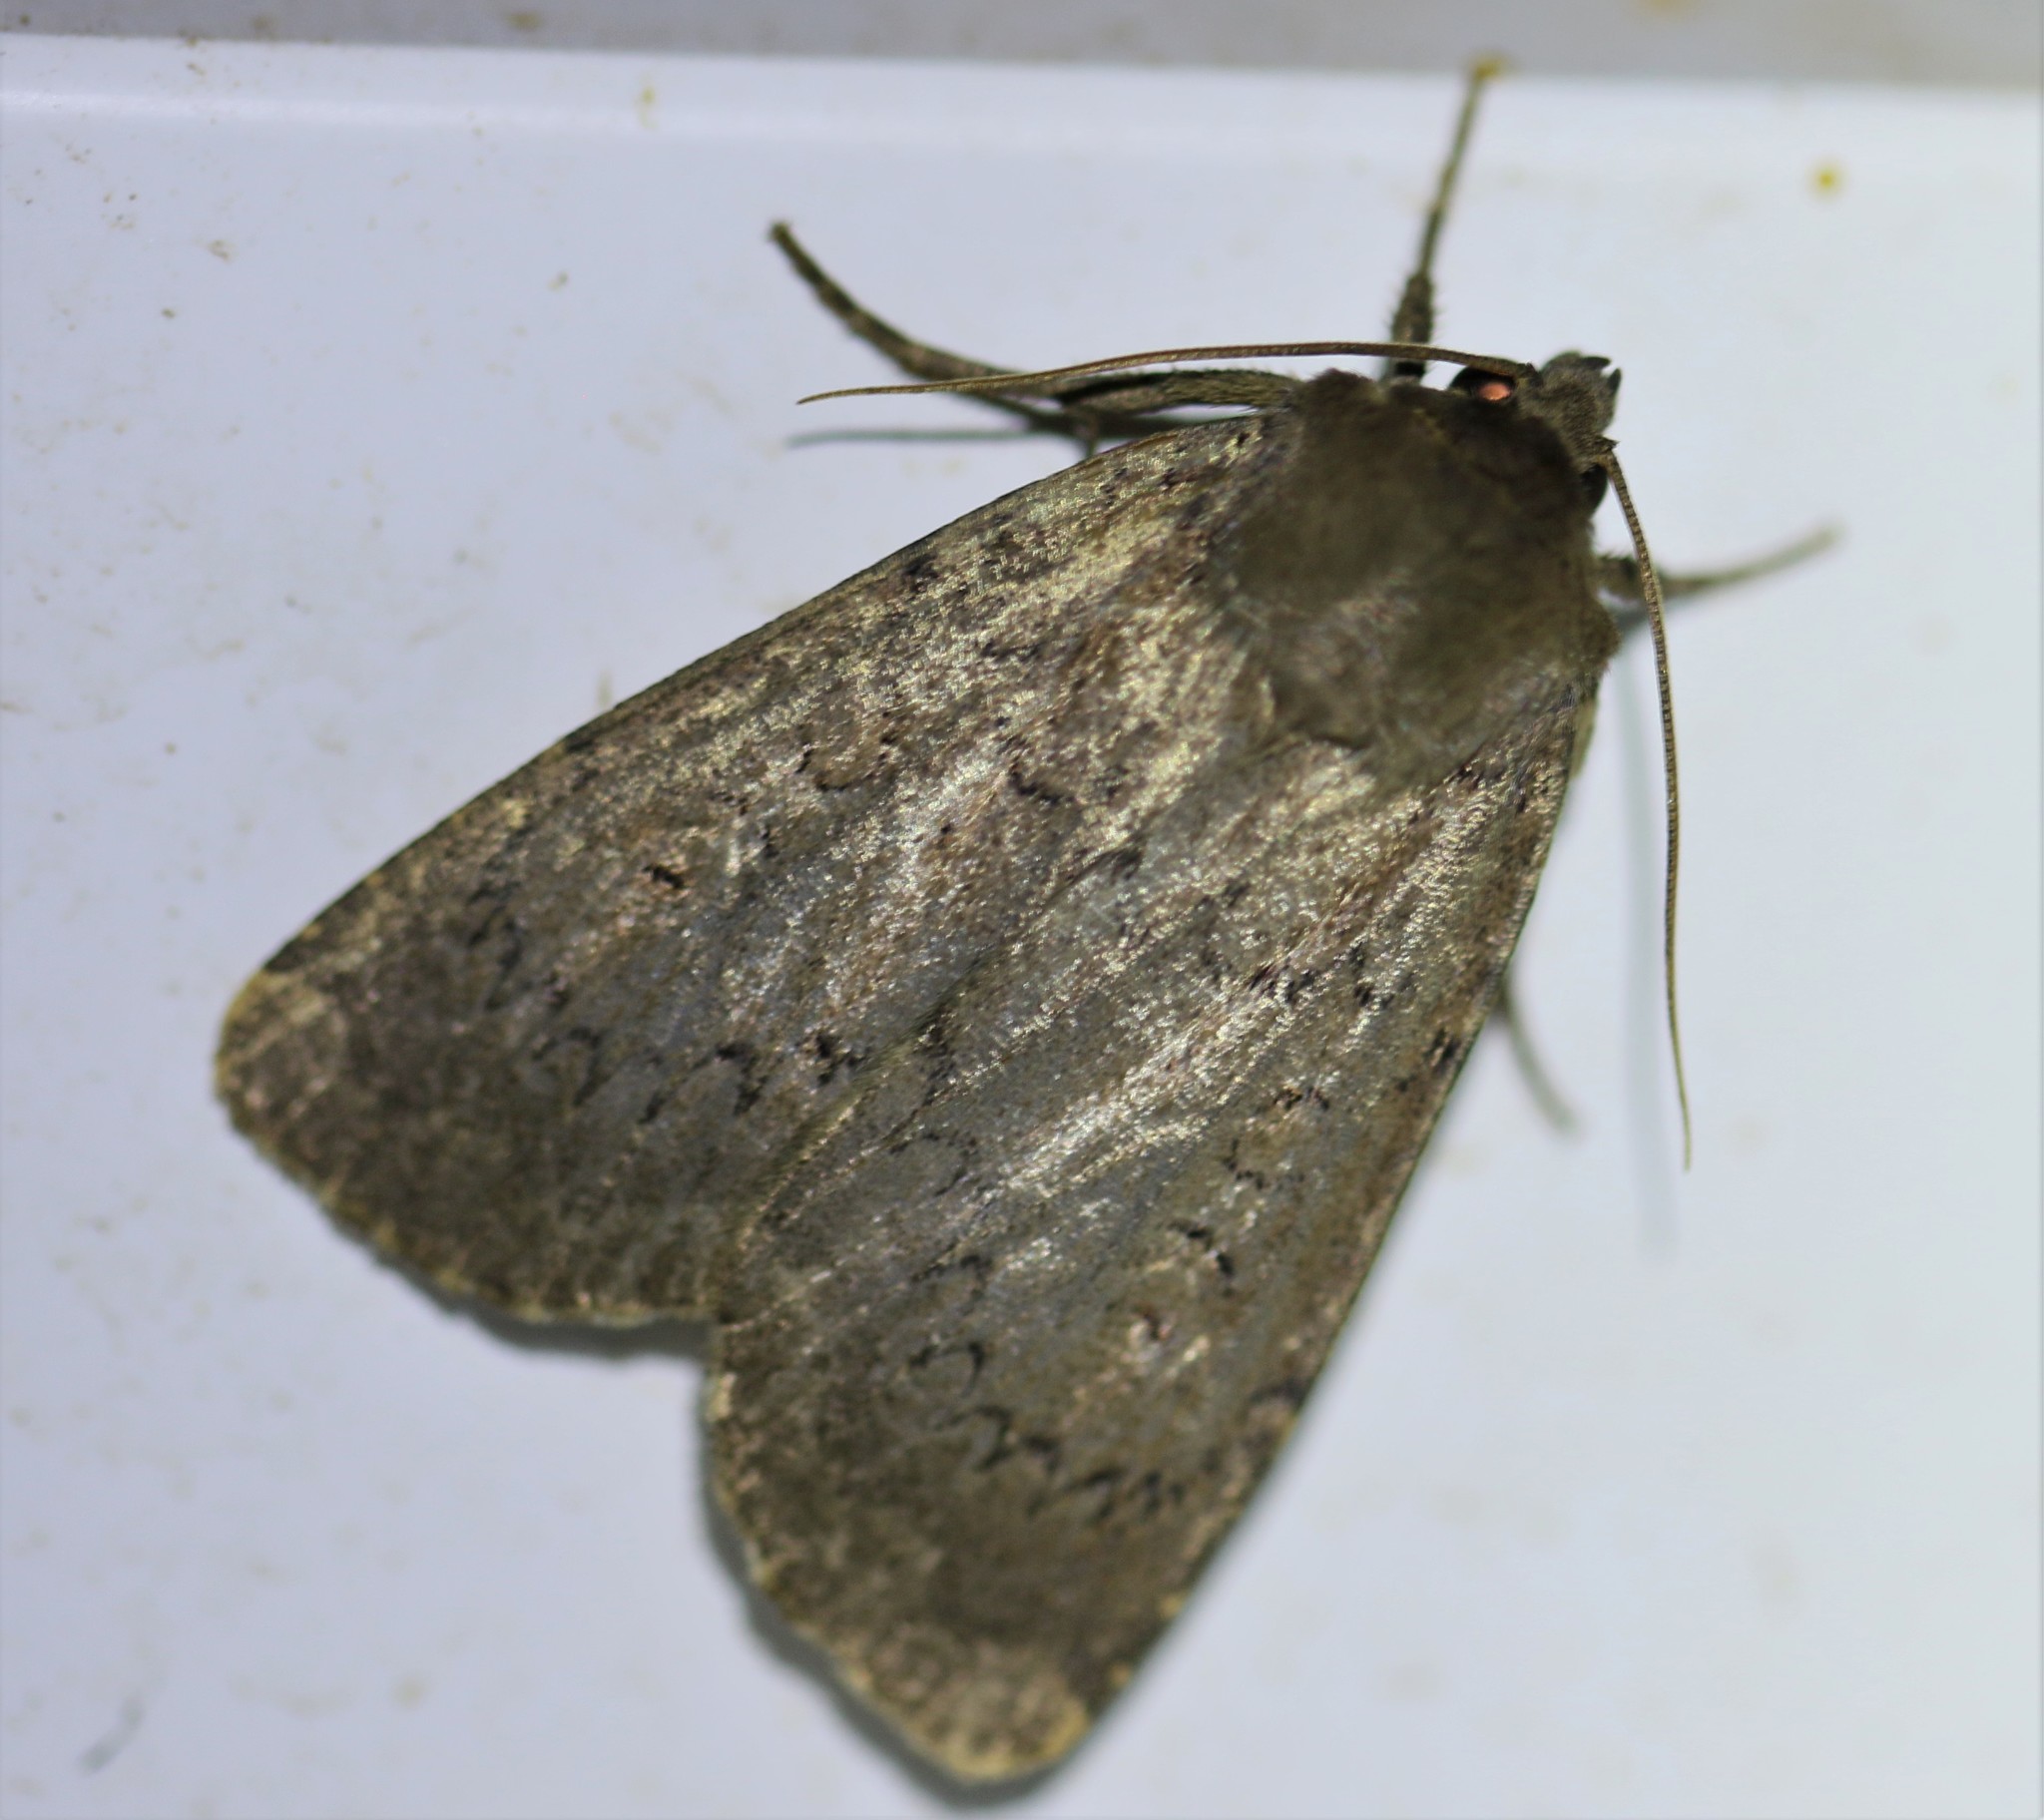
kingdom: Animalia
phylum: Arthropoda
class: Insecta
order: Lepidoptera
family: Noctuidae
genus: Graphiphora
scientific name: Graphiphora augur
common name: Double dart
